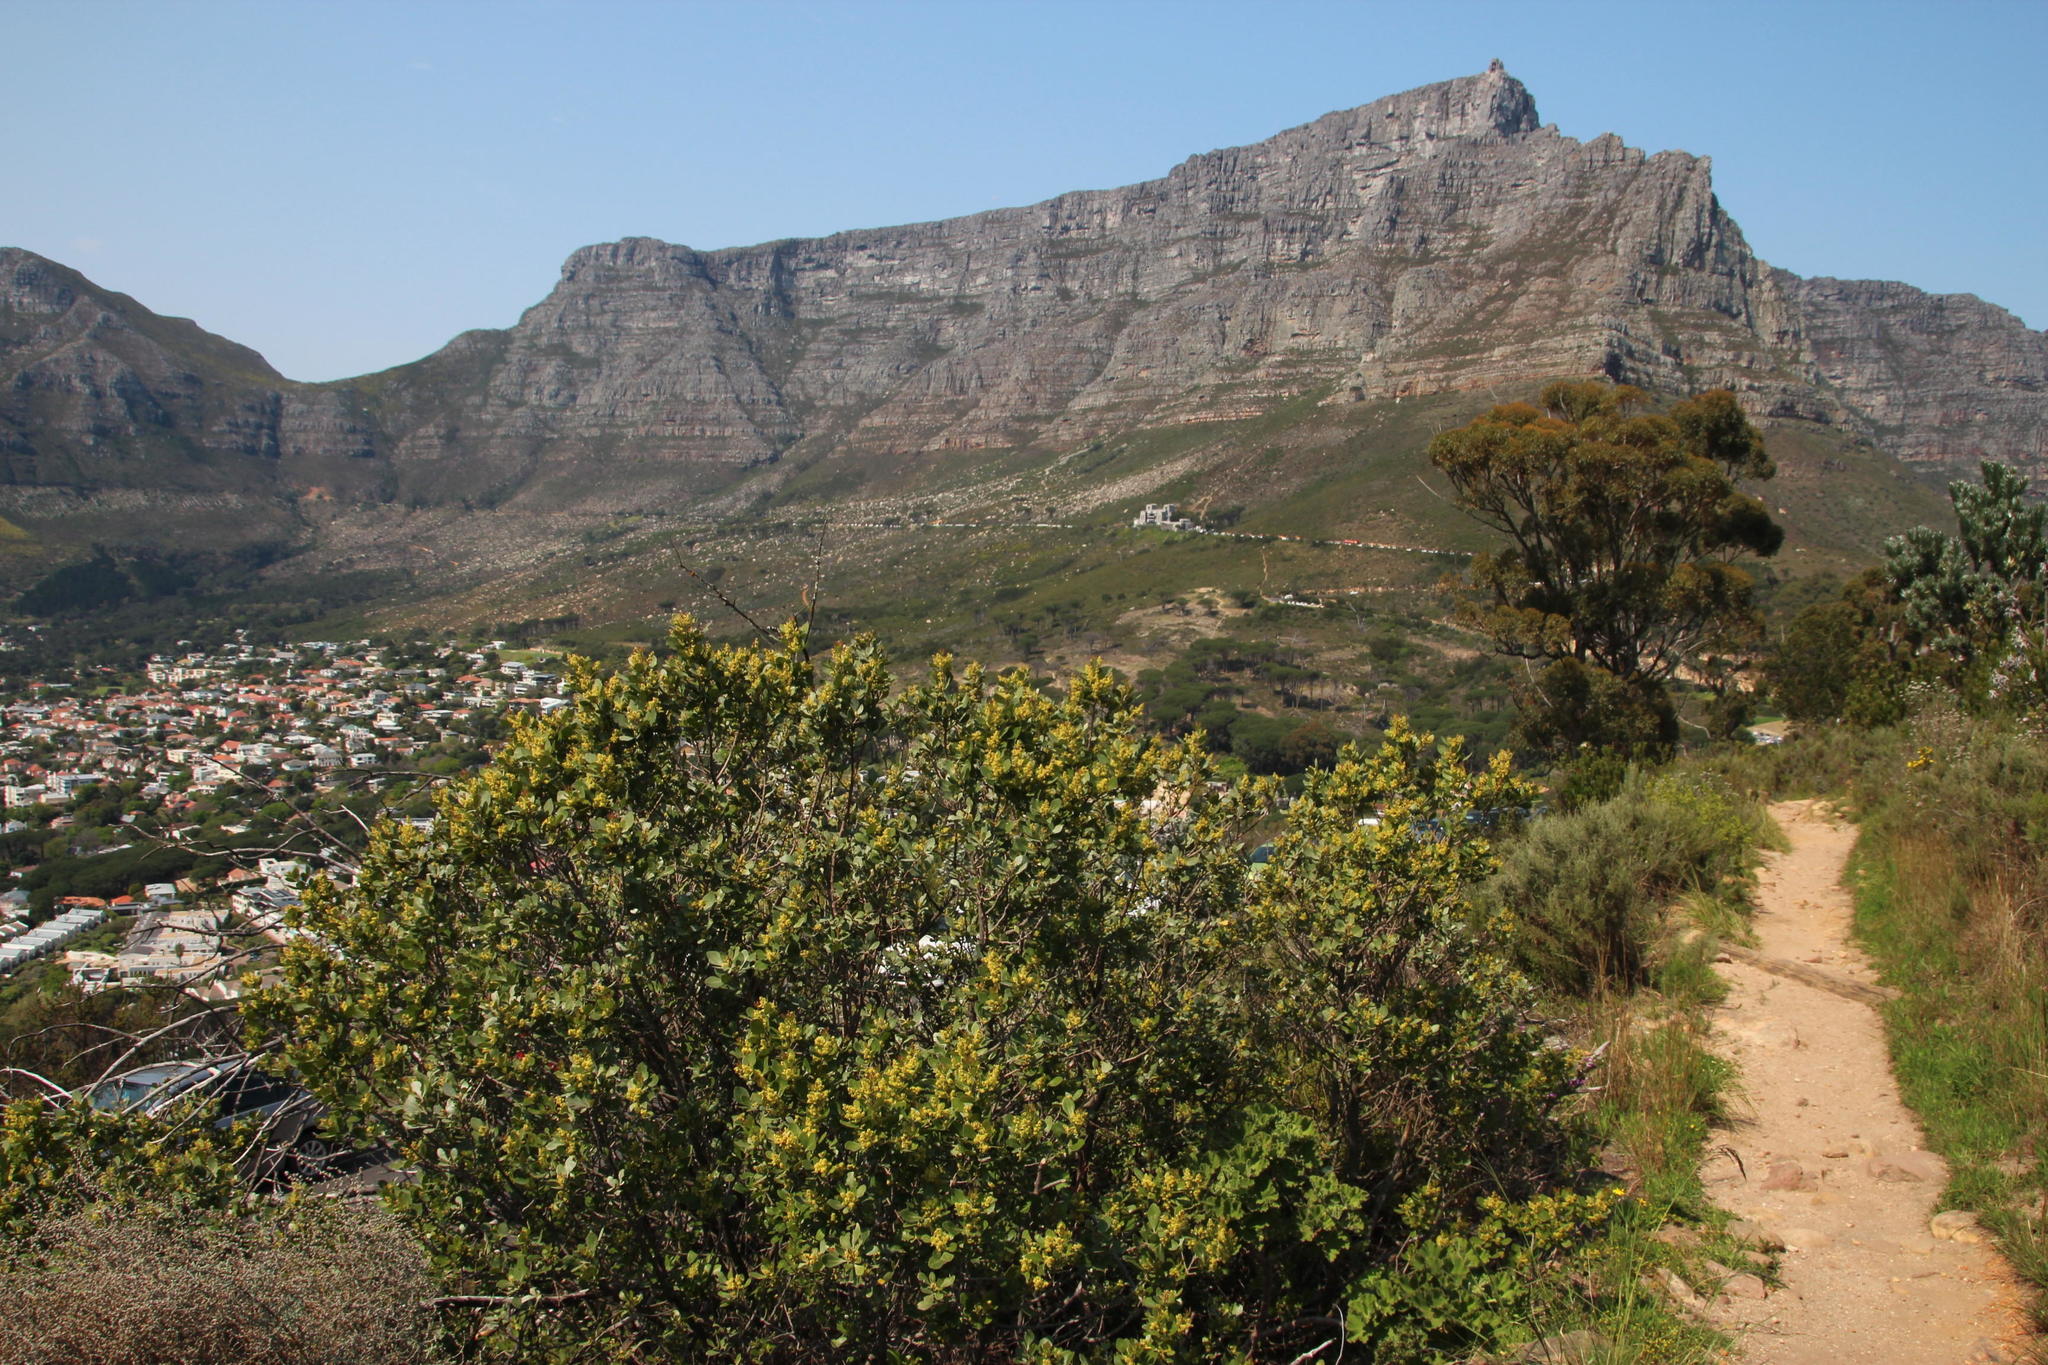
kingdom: Plantae
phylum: Tracheophyta
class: Magnoliopsida
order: Sapindales
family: Anacardiaceae
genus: Searsia
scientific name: Searsia lucida
